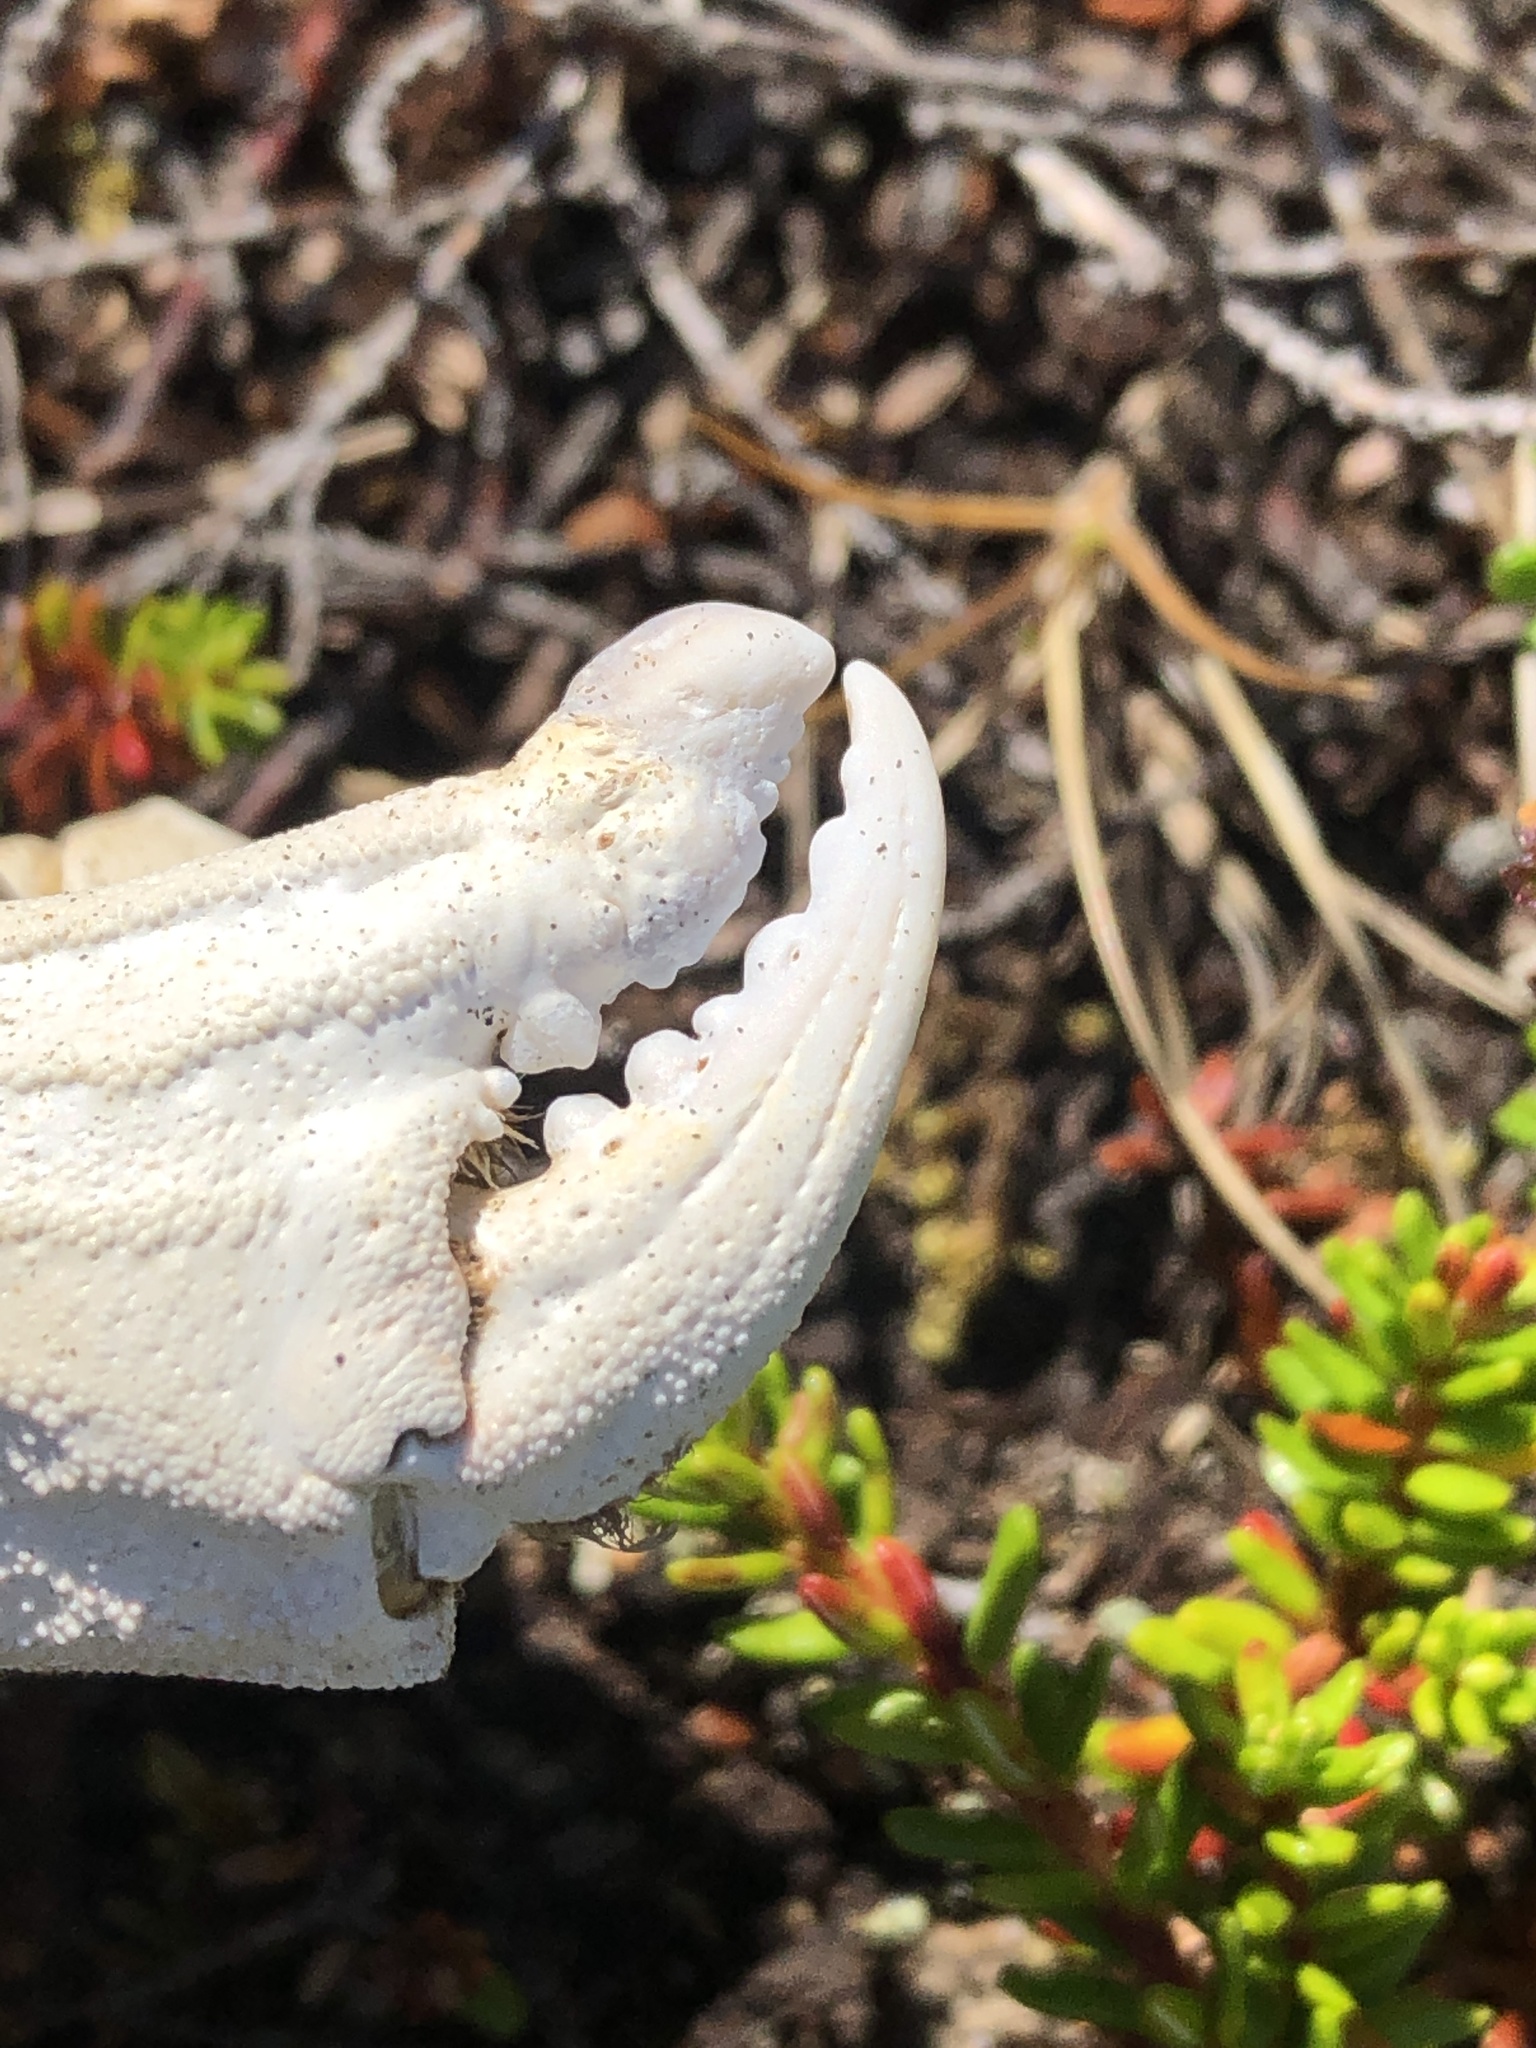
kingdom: Animalia
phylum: Arthropoda
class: Malacostraca
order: Decapoda
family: Cancridae
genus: Cancer
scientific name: Cancer irroratus
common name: Atlantic rock crab
